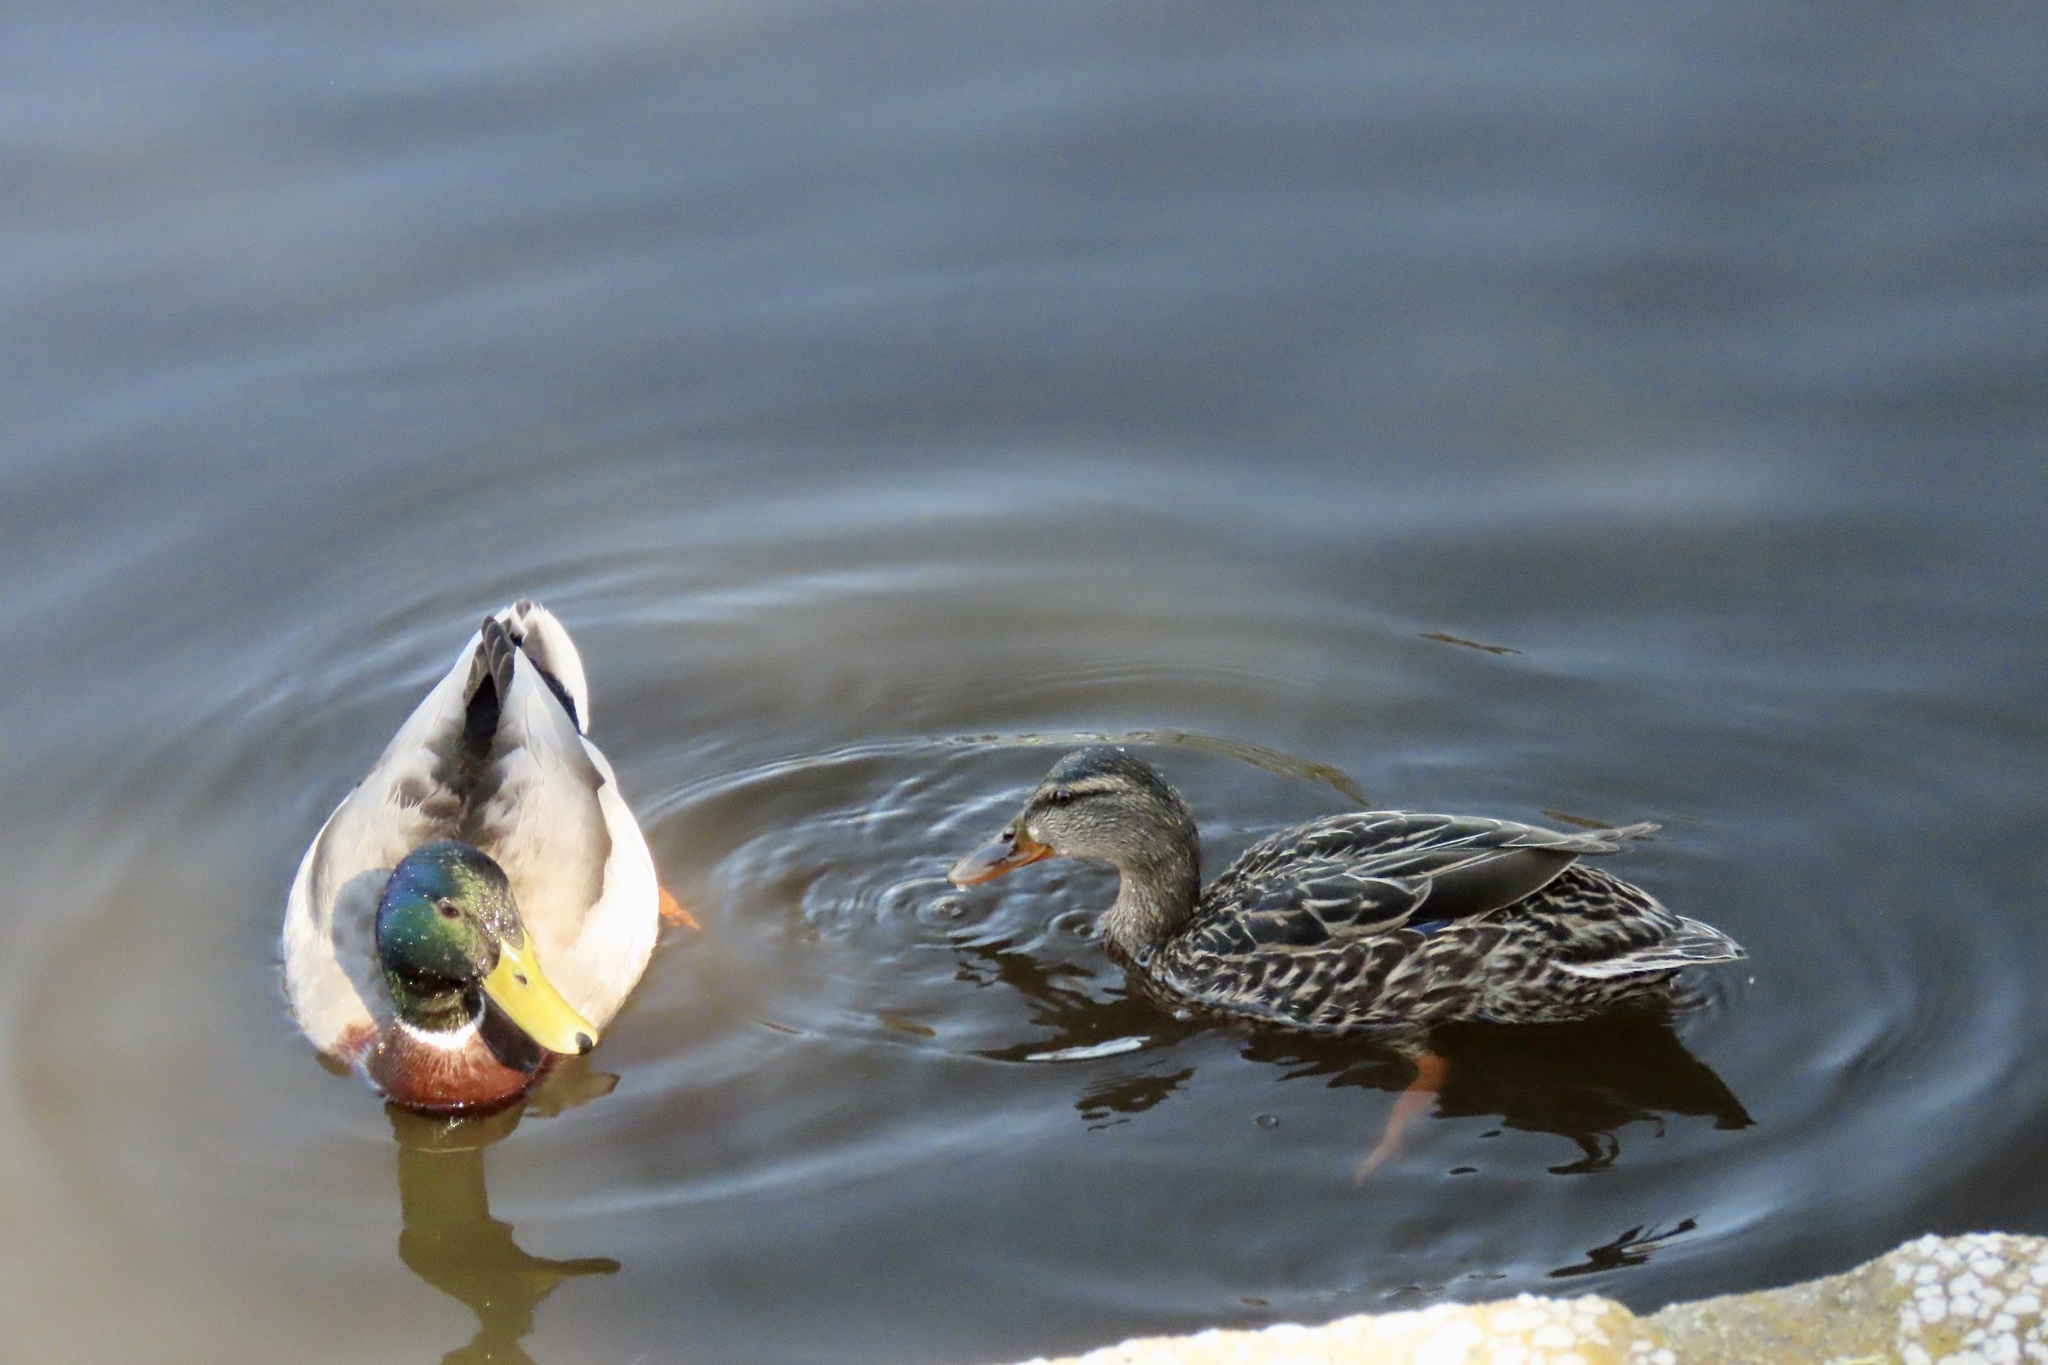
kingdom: Animalia
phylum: Chordata
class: Aves
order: Anseriformes
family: Anatidae
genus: Anas
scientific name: Anas platyrhynchos
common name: Mallard
